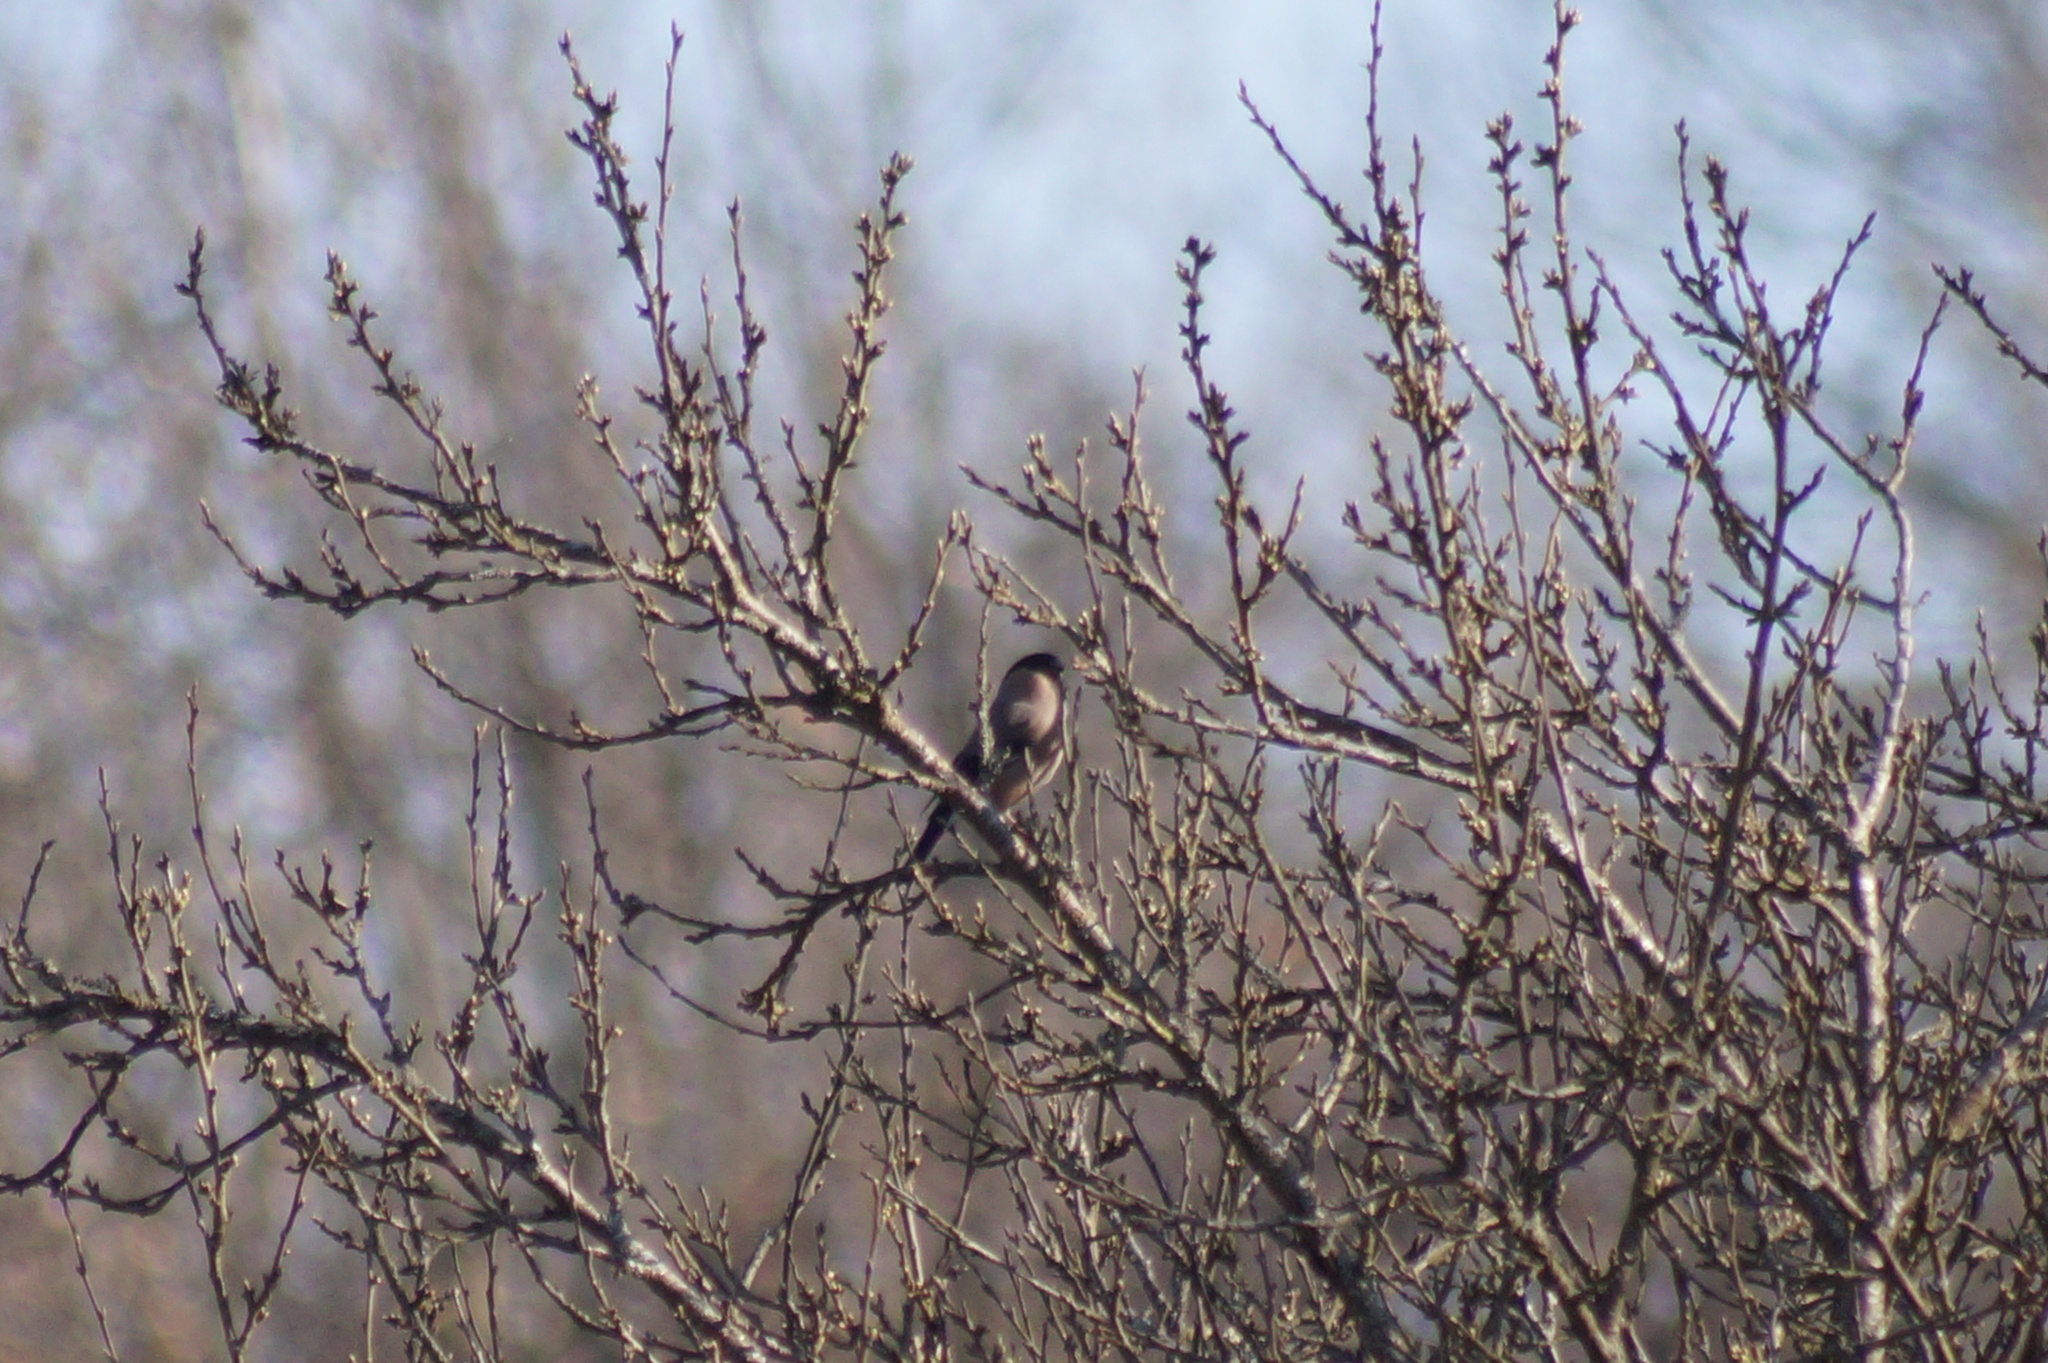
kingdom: Animalia
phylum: Chordata
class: Aves
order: Passeriformes
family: Fringillidae
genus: Pyrrhula
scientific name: Pyrrhula pyrrhula
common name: Eurasian bullfinch
